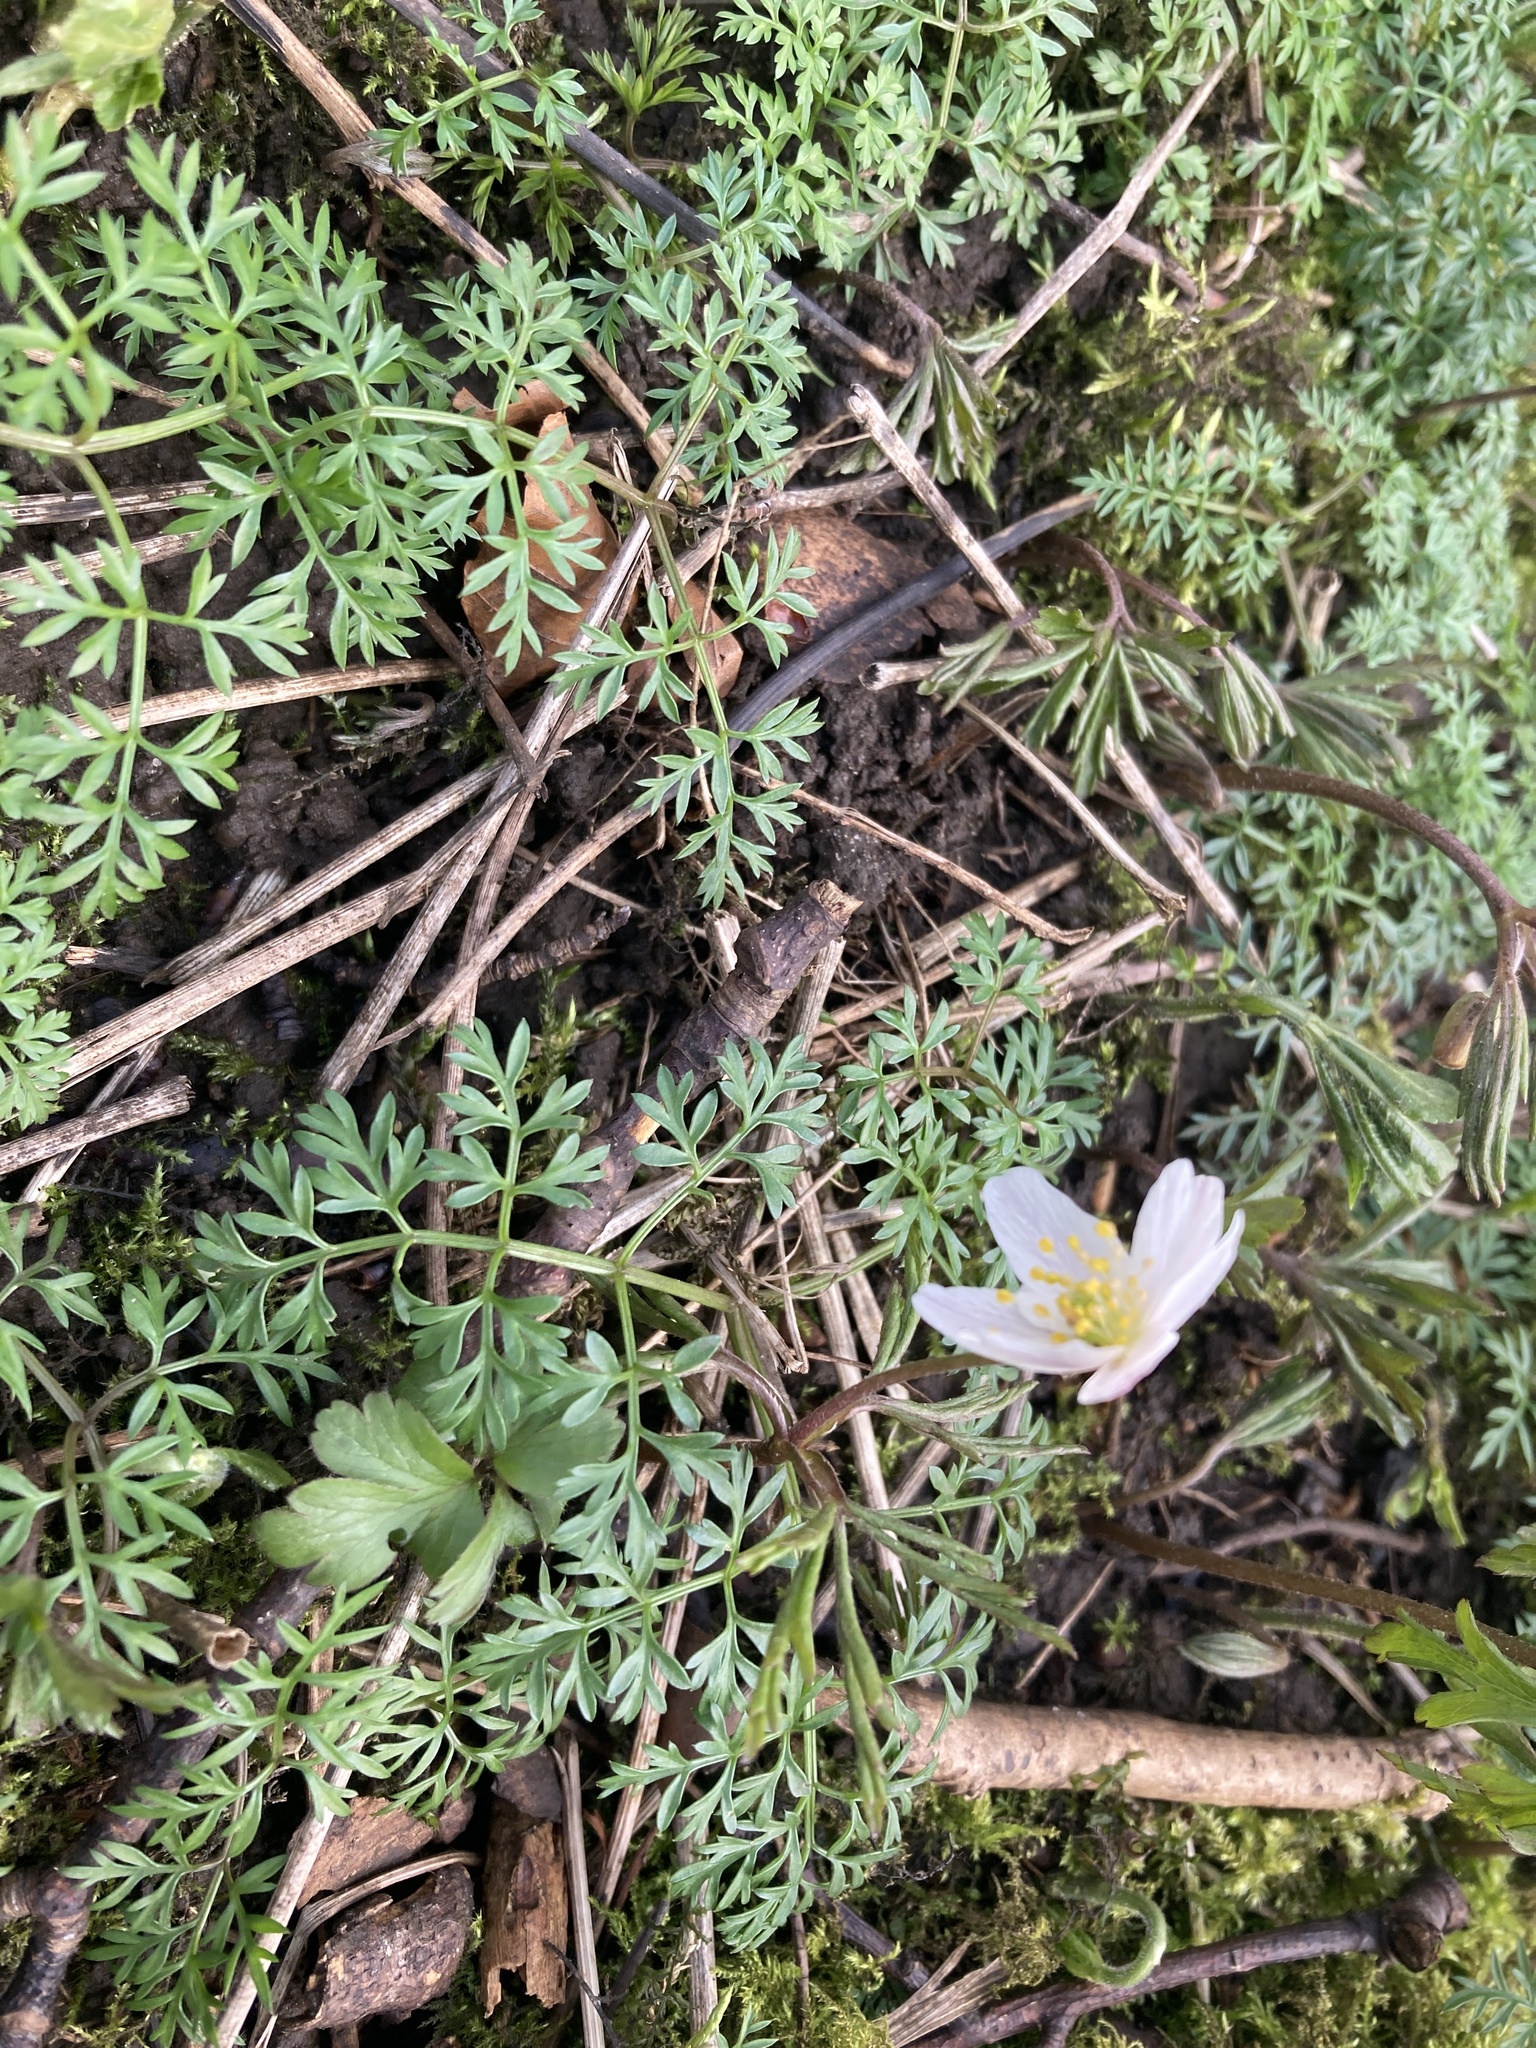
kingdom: Plantae
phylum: Tracheophyta
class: Magnoliopsida
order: Ranunculales
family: Ranunculaceae
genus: Anemone
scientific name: Anemone nemorosa
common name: Wood anemone
